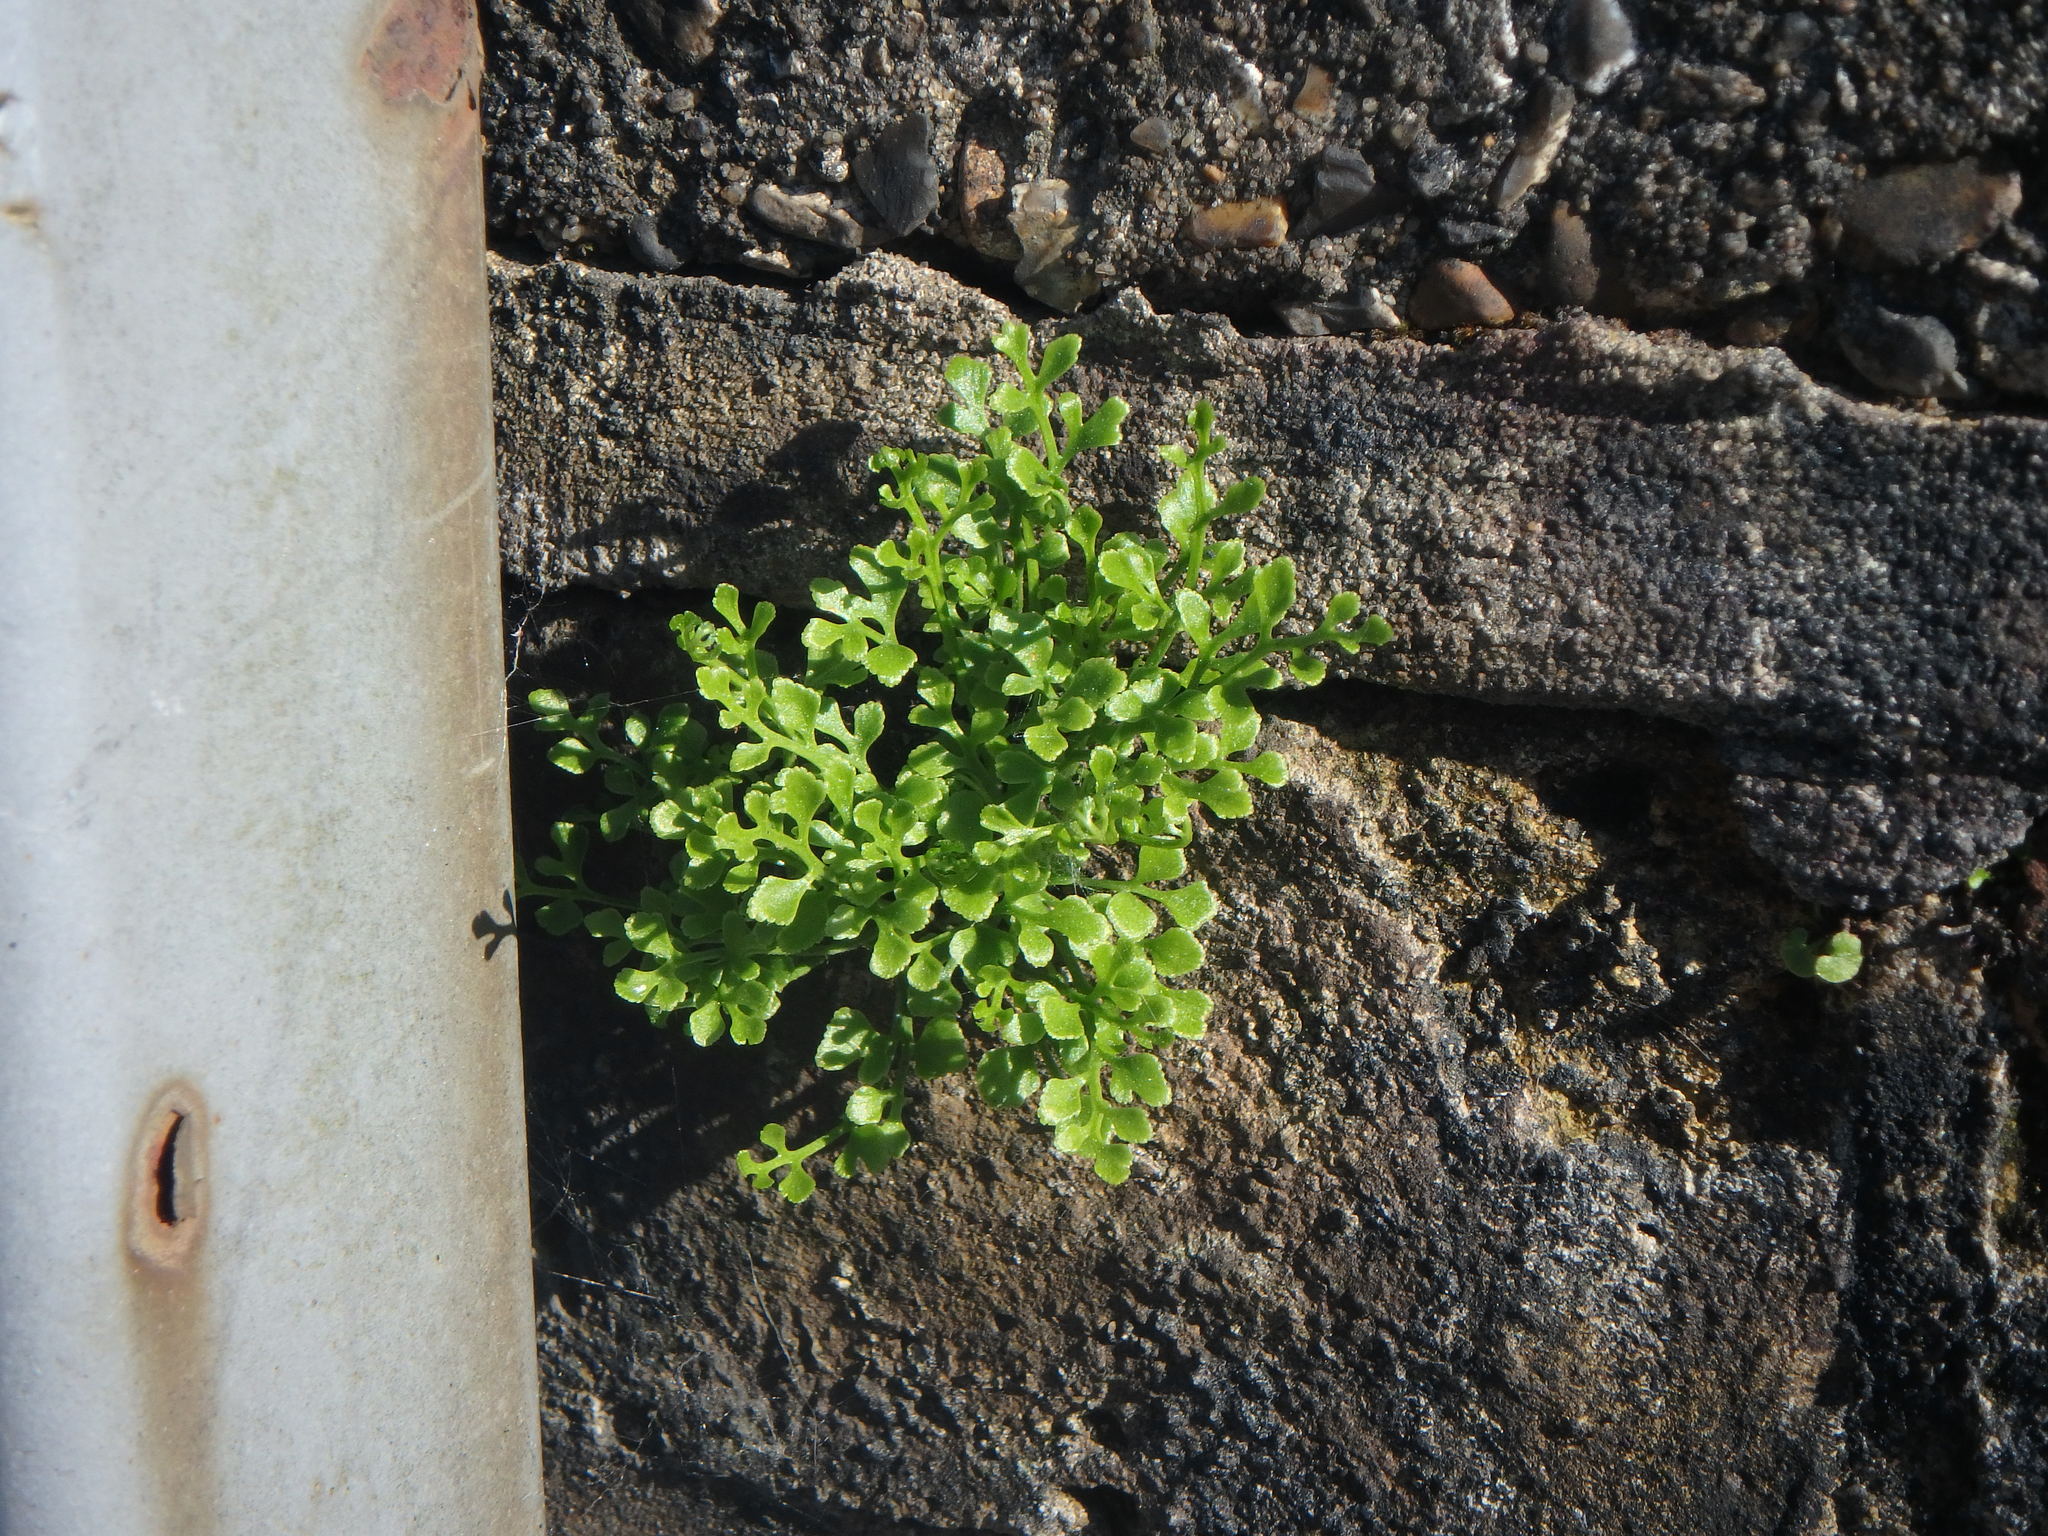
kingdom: Plantae
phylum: Tracheophyta
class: Polypodiopsida
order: Polypodiales
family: Aspleniaceae
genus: Asplenium
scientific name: Asplenium ruta-muraria
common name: Wall-rue
